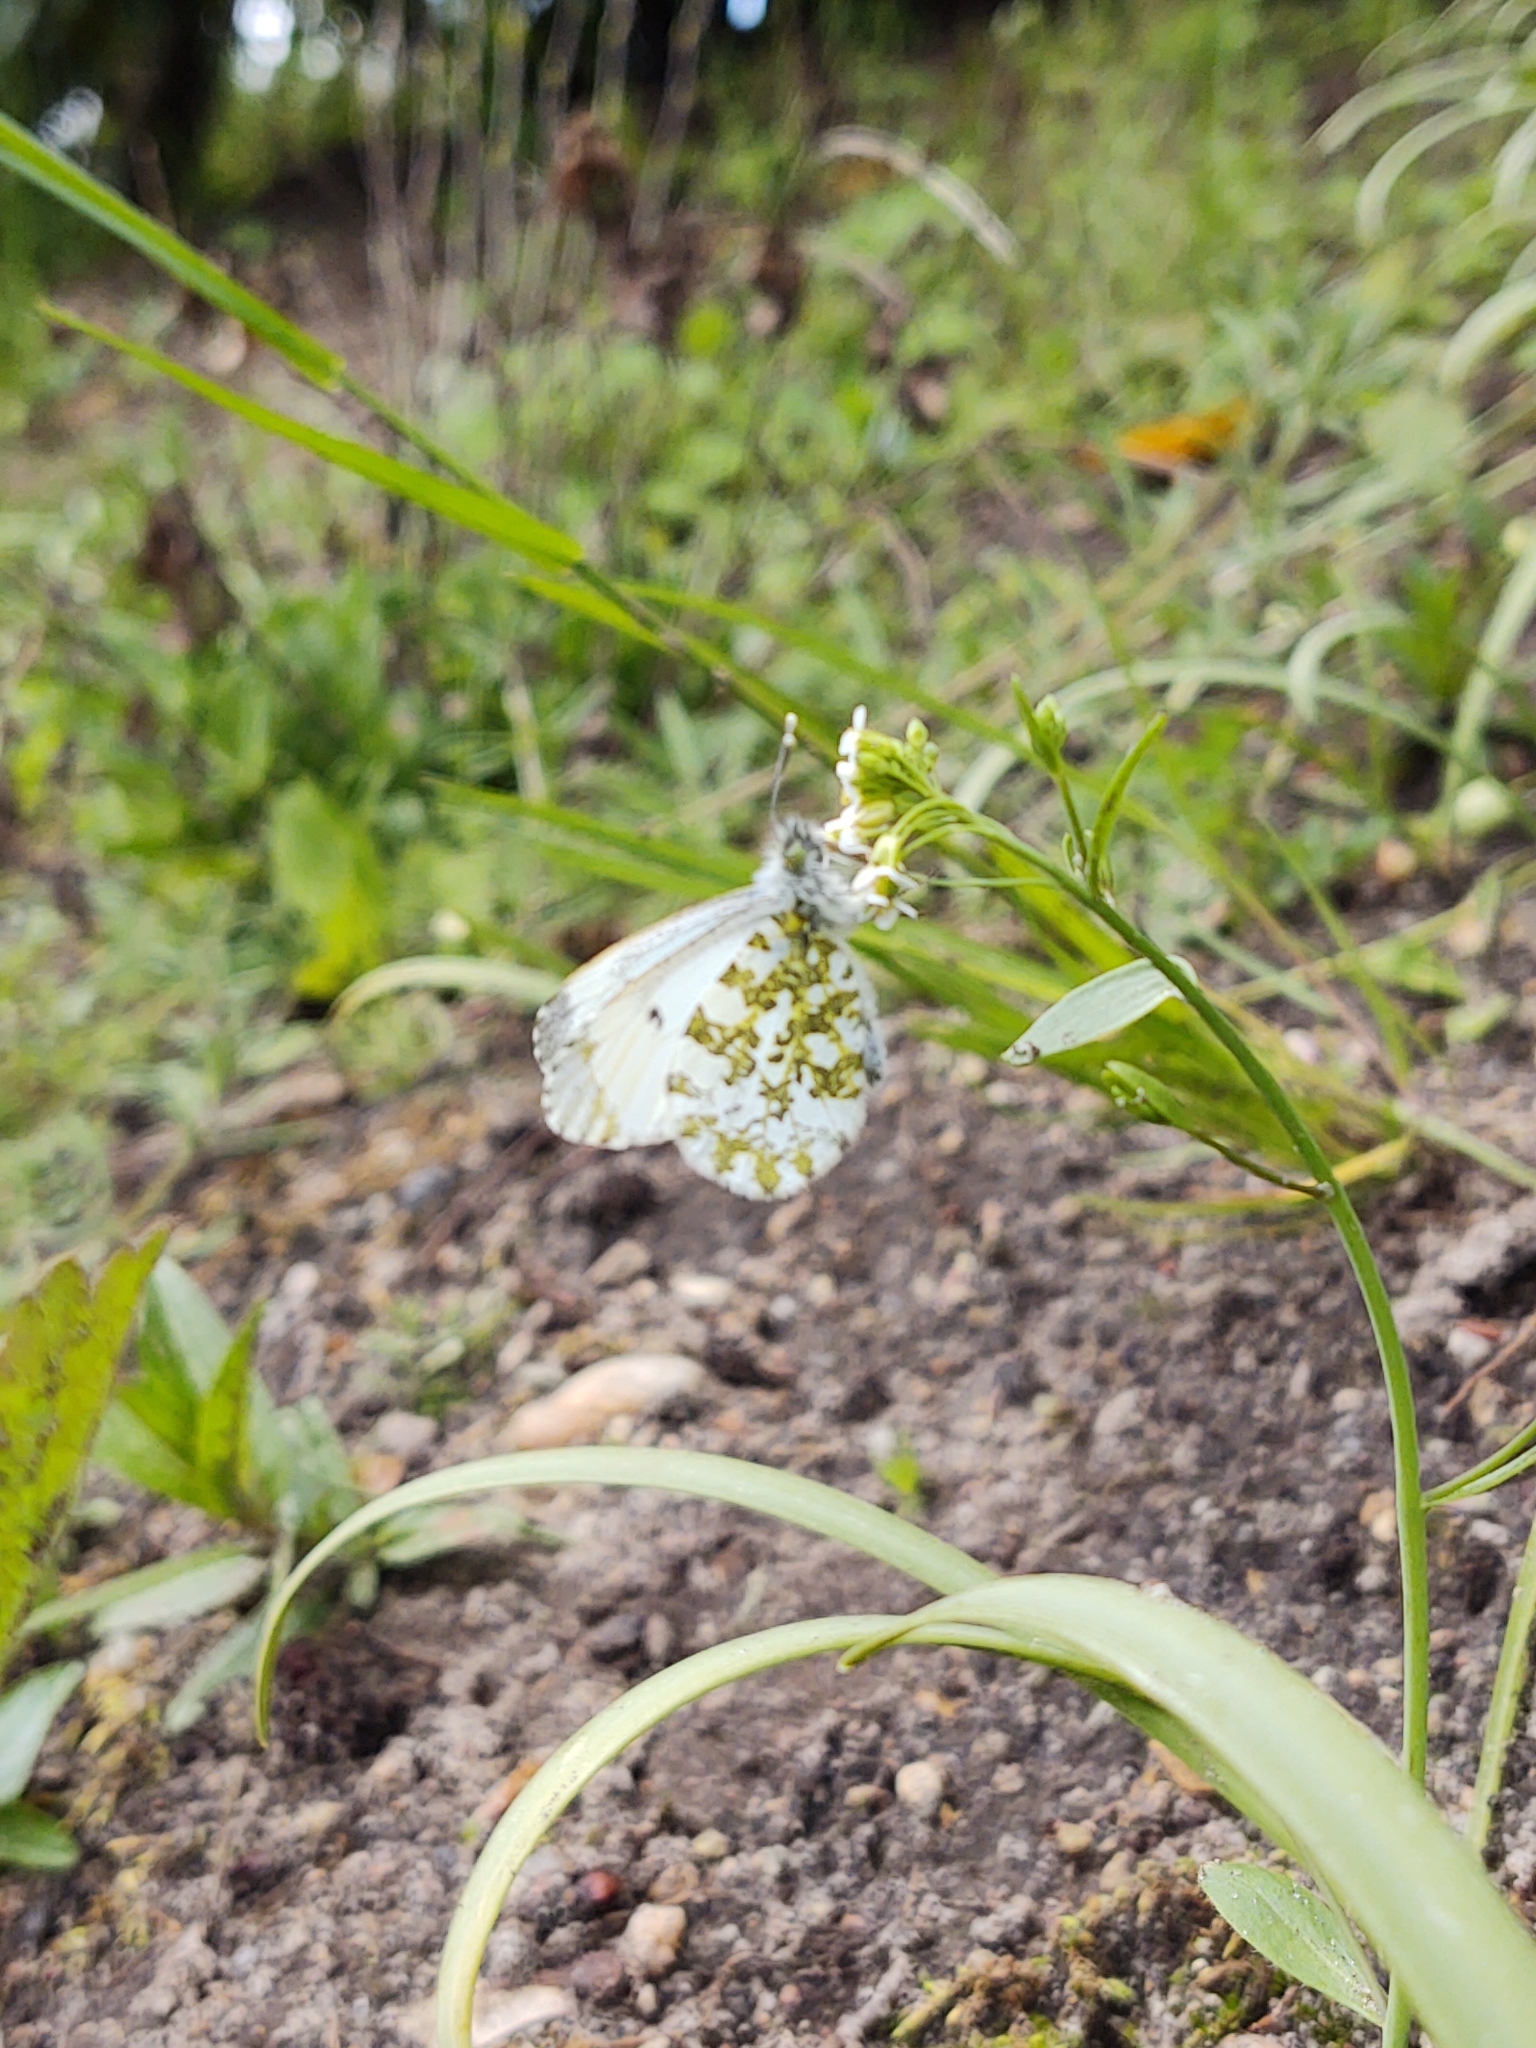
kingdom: Animalia
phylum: Arthropoda
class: Insecta
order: Lepidoptera
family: Pieridae
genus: Anthocharis
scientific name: Anthocharis cardamines
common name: Orange-tip
